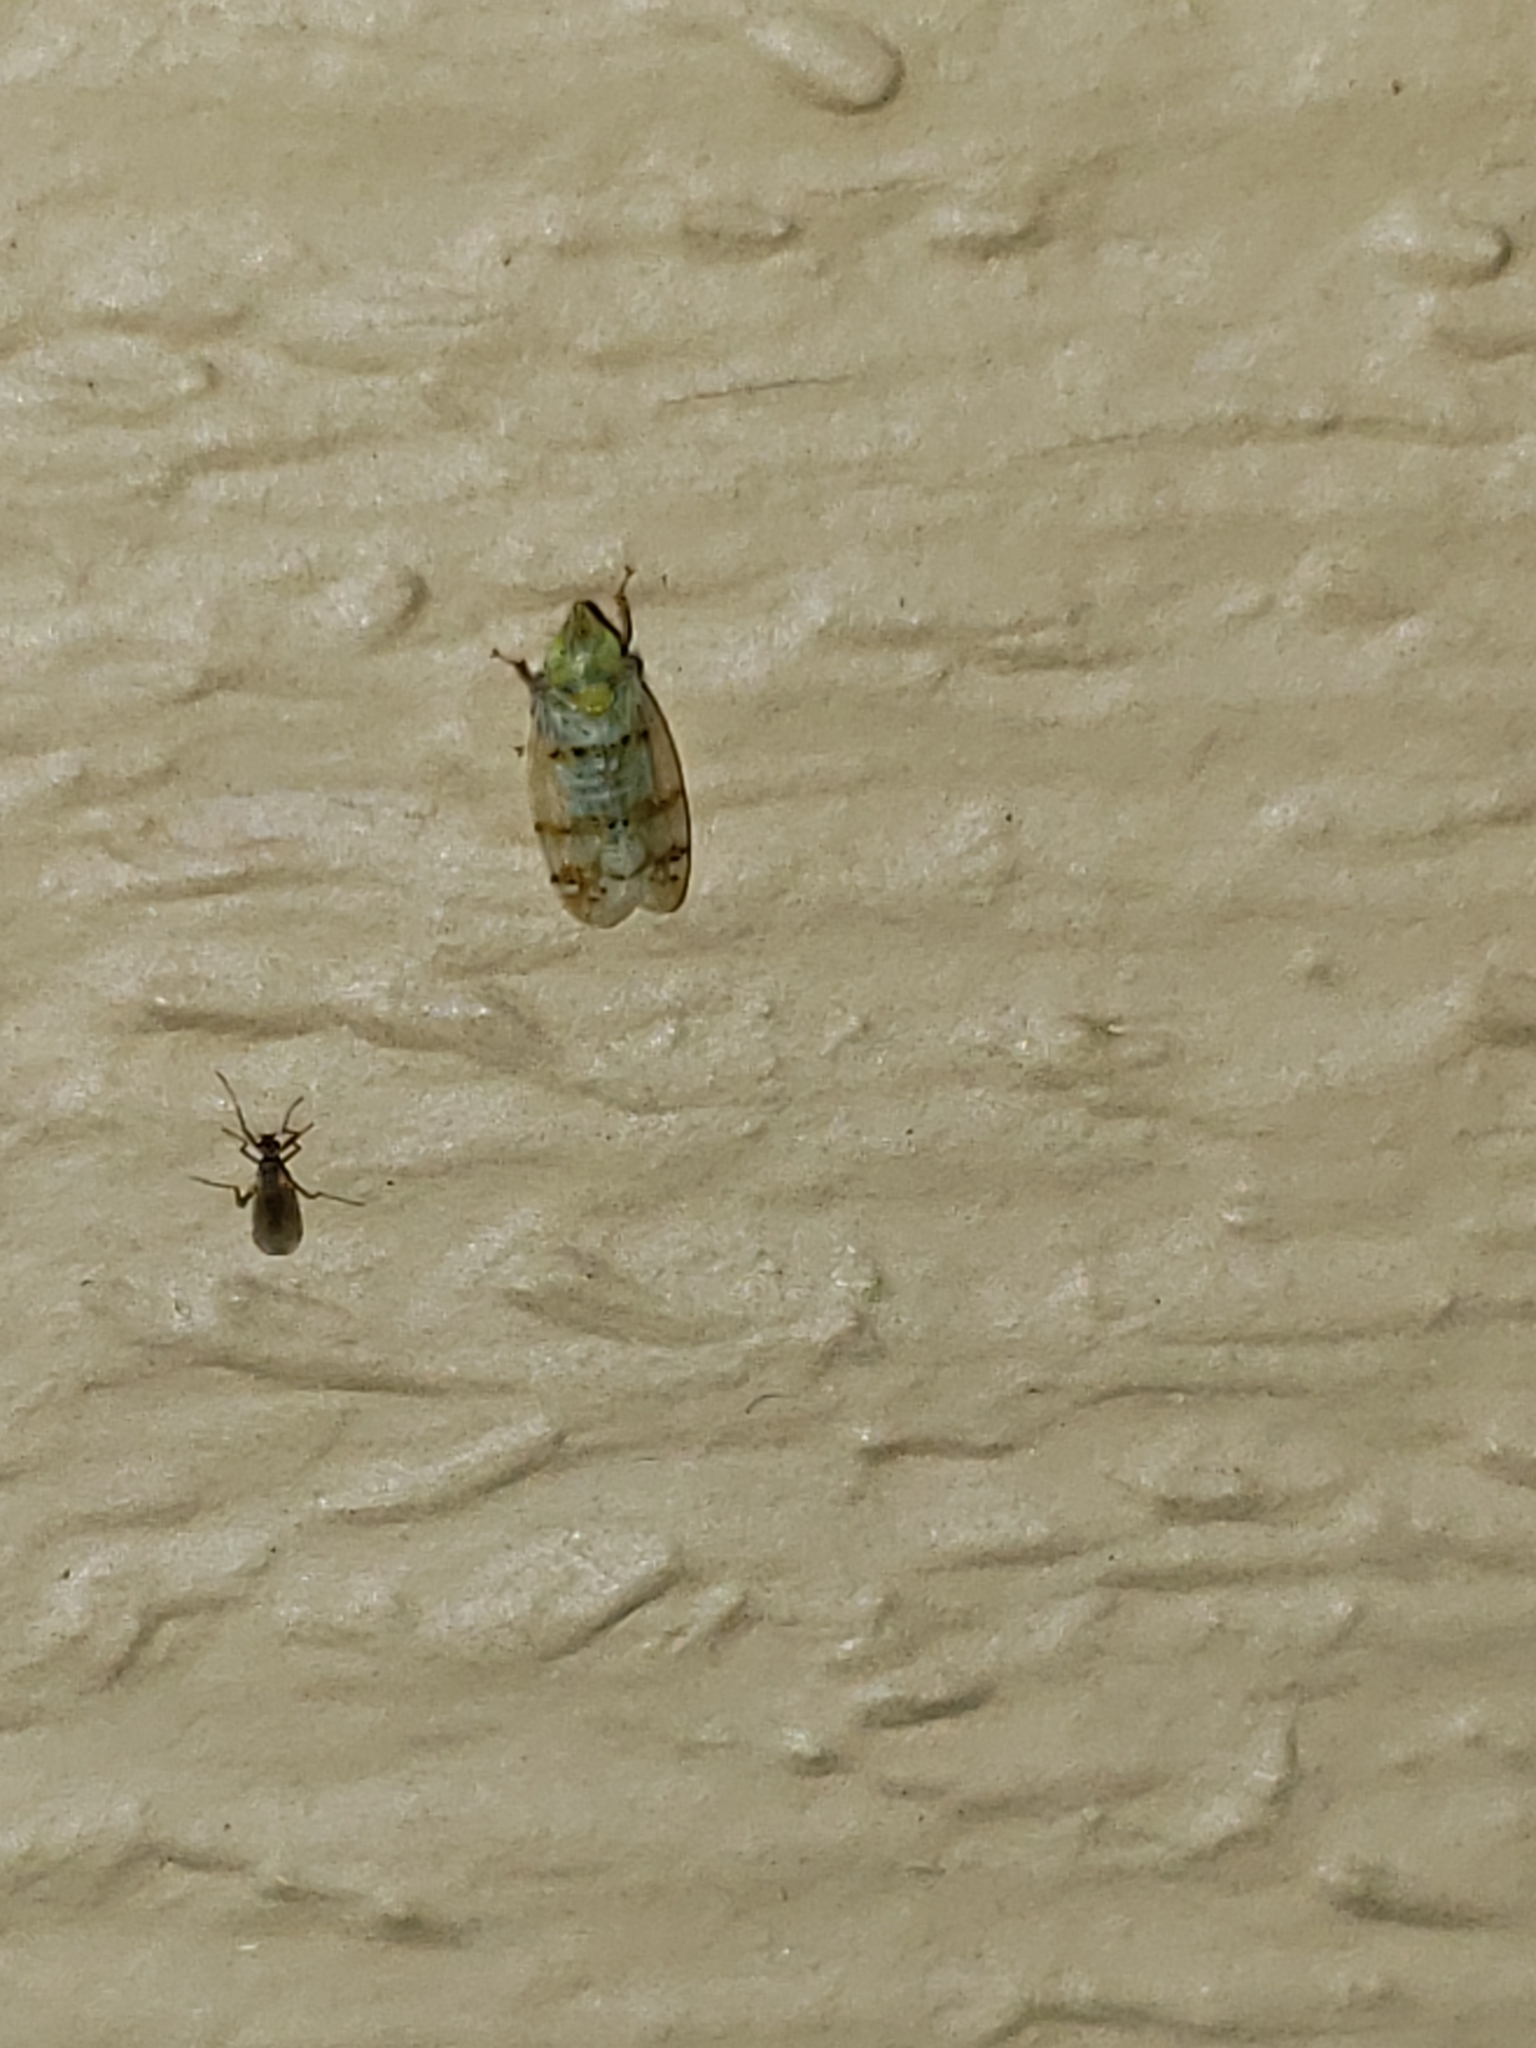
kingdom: Animalia
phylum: Arthropoda
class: Insecta
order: Hemiptera
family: Cicadellidae
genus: Japananus
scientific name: Japananus hyalinus
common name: The japanese maple leafhopper
